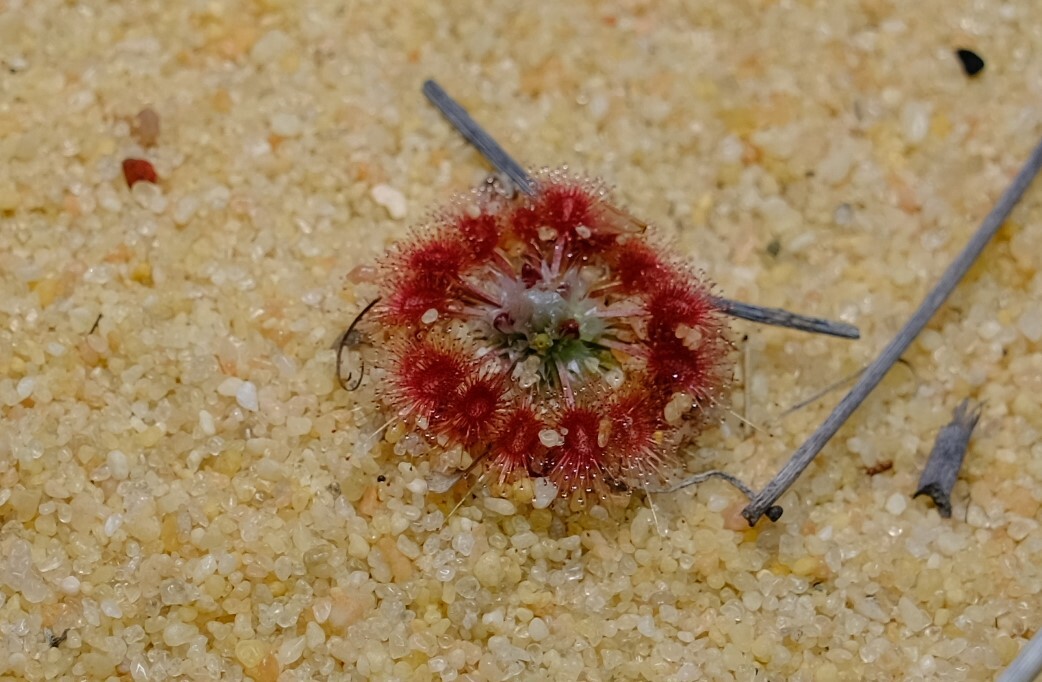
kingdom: Plantae
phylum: Tracheophyta
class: Magnoliopsida
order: Caryophyllales
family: Droseraceae
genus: Drosera
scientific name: Drosera rechingeri
